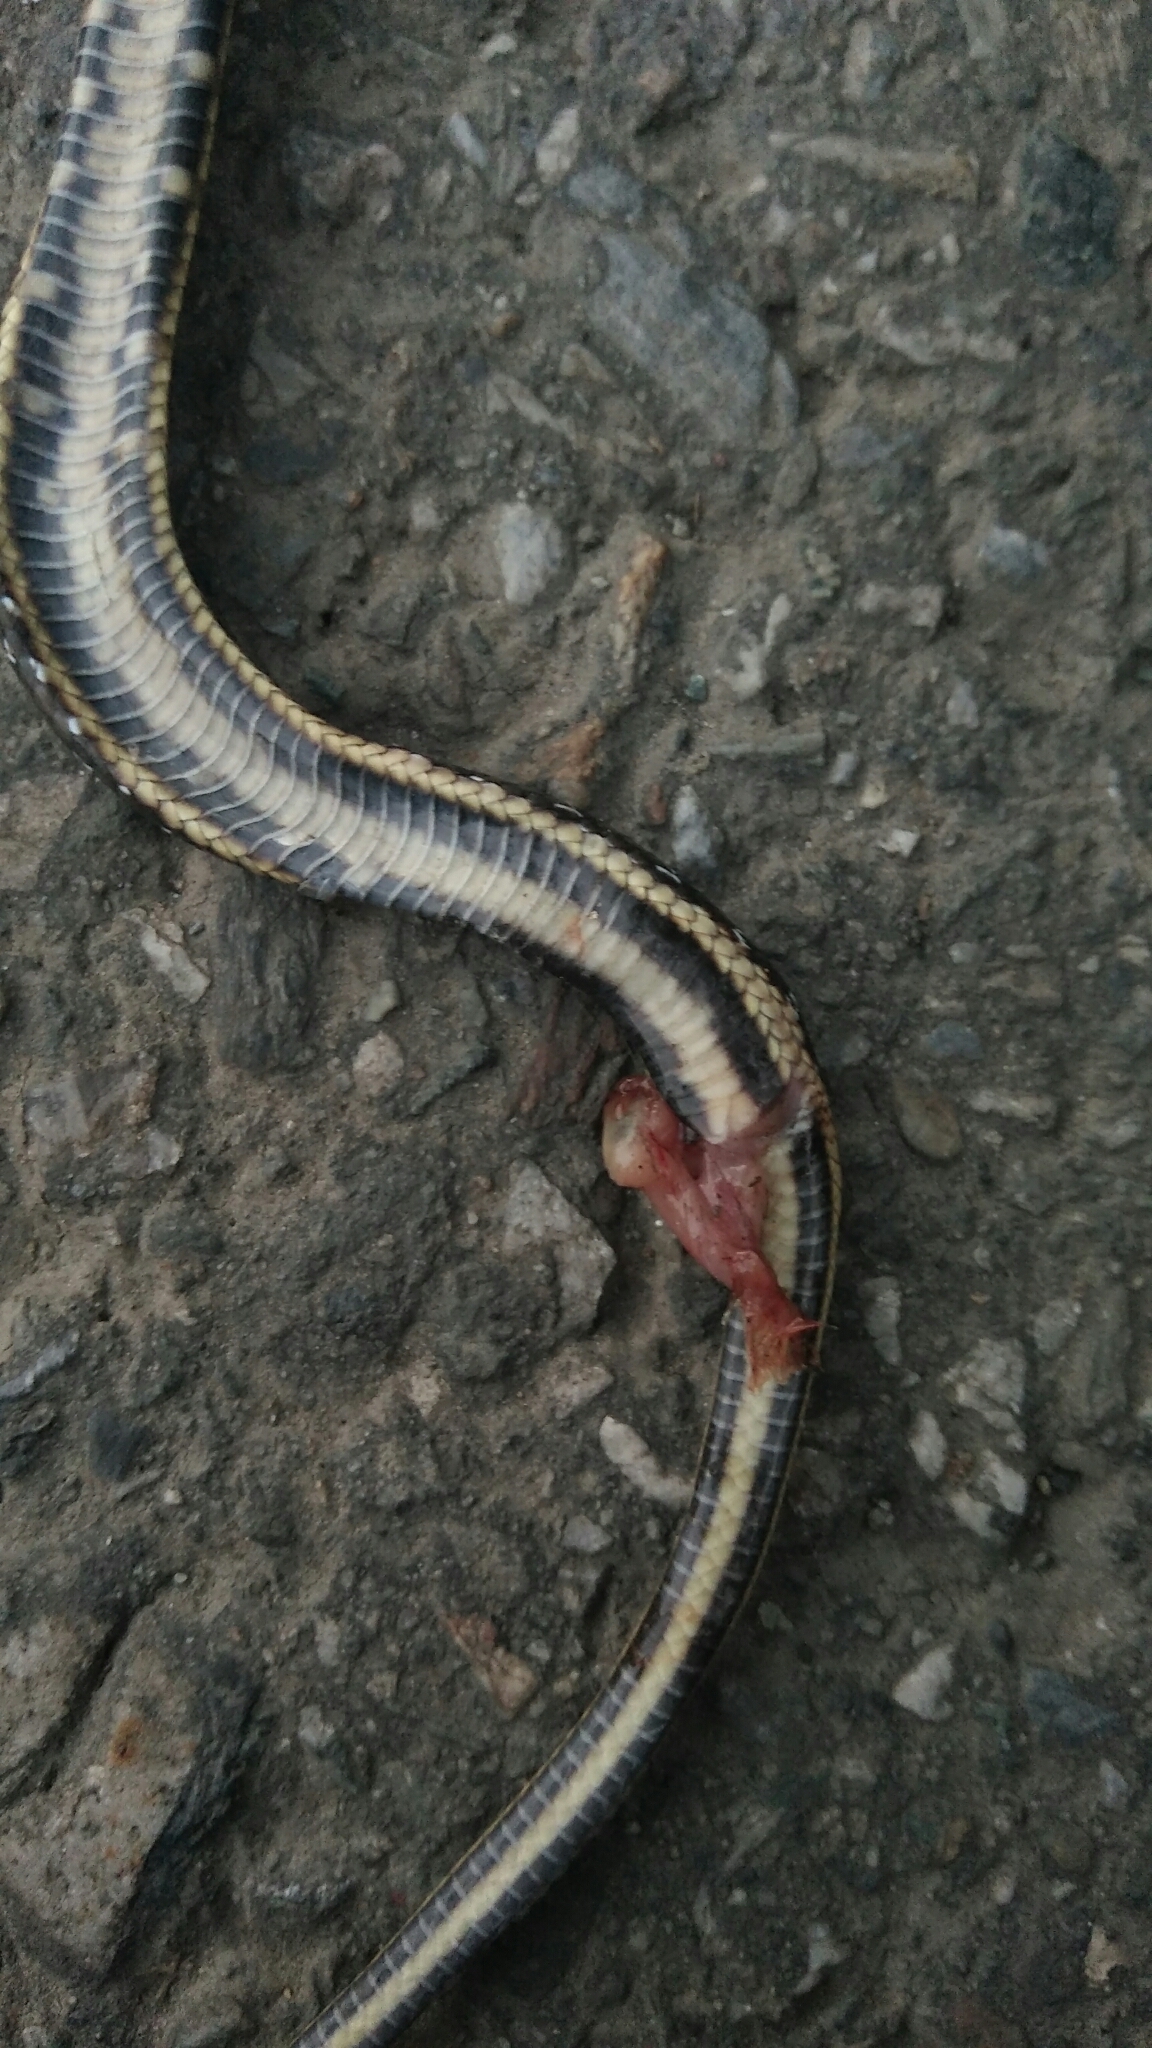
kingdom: Animalia
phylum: Chordata
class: Squamata
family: Colubridae
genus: Elaphe
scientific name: Elaphe taeniura
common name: Beauty snake
